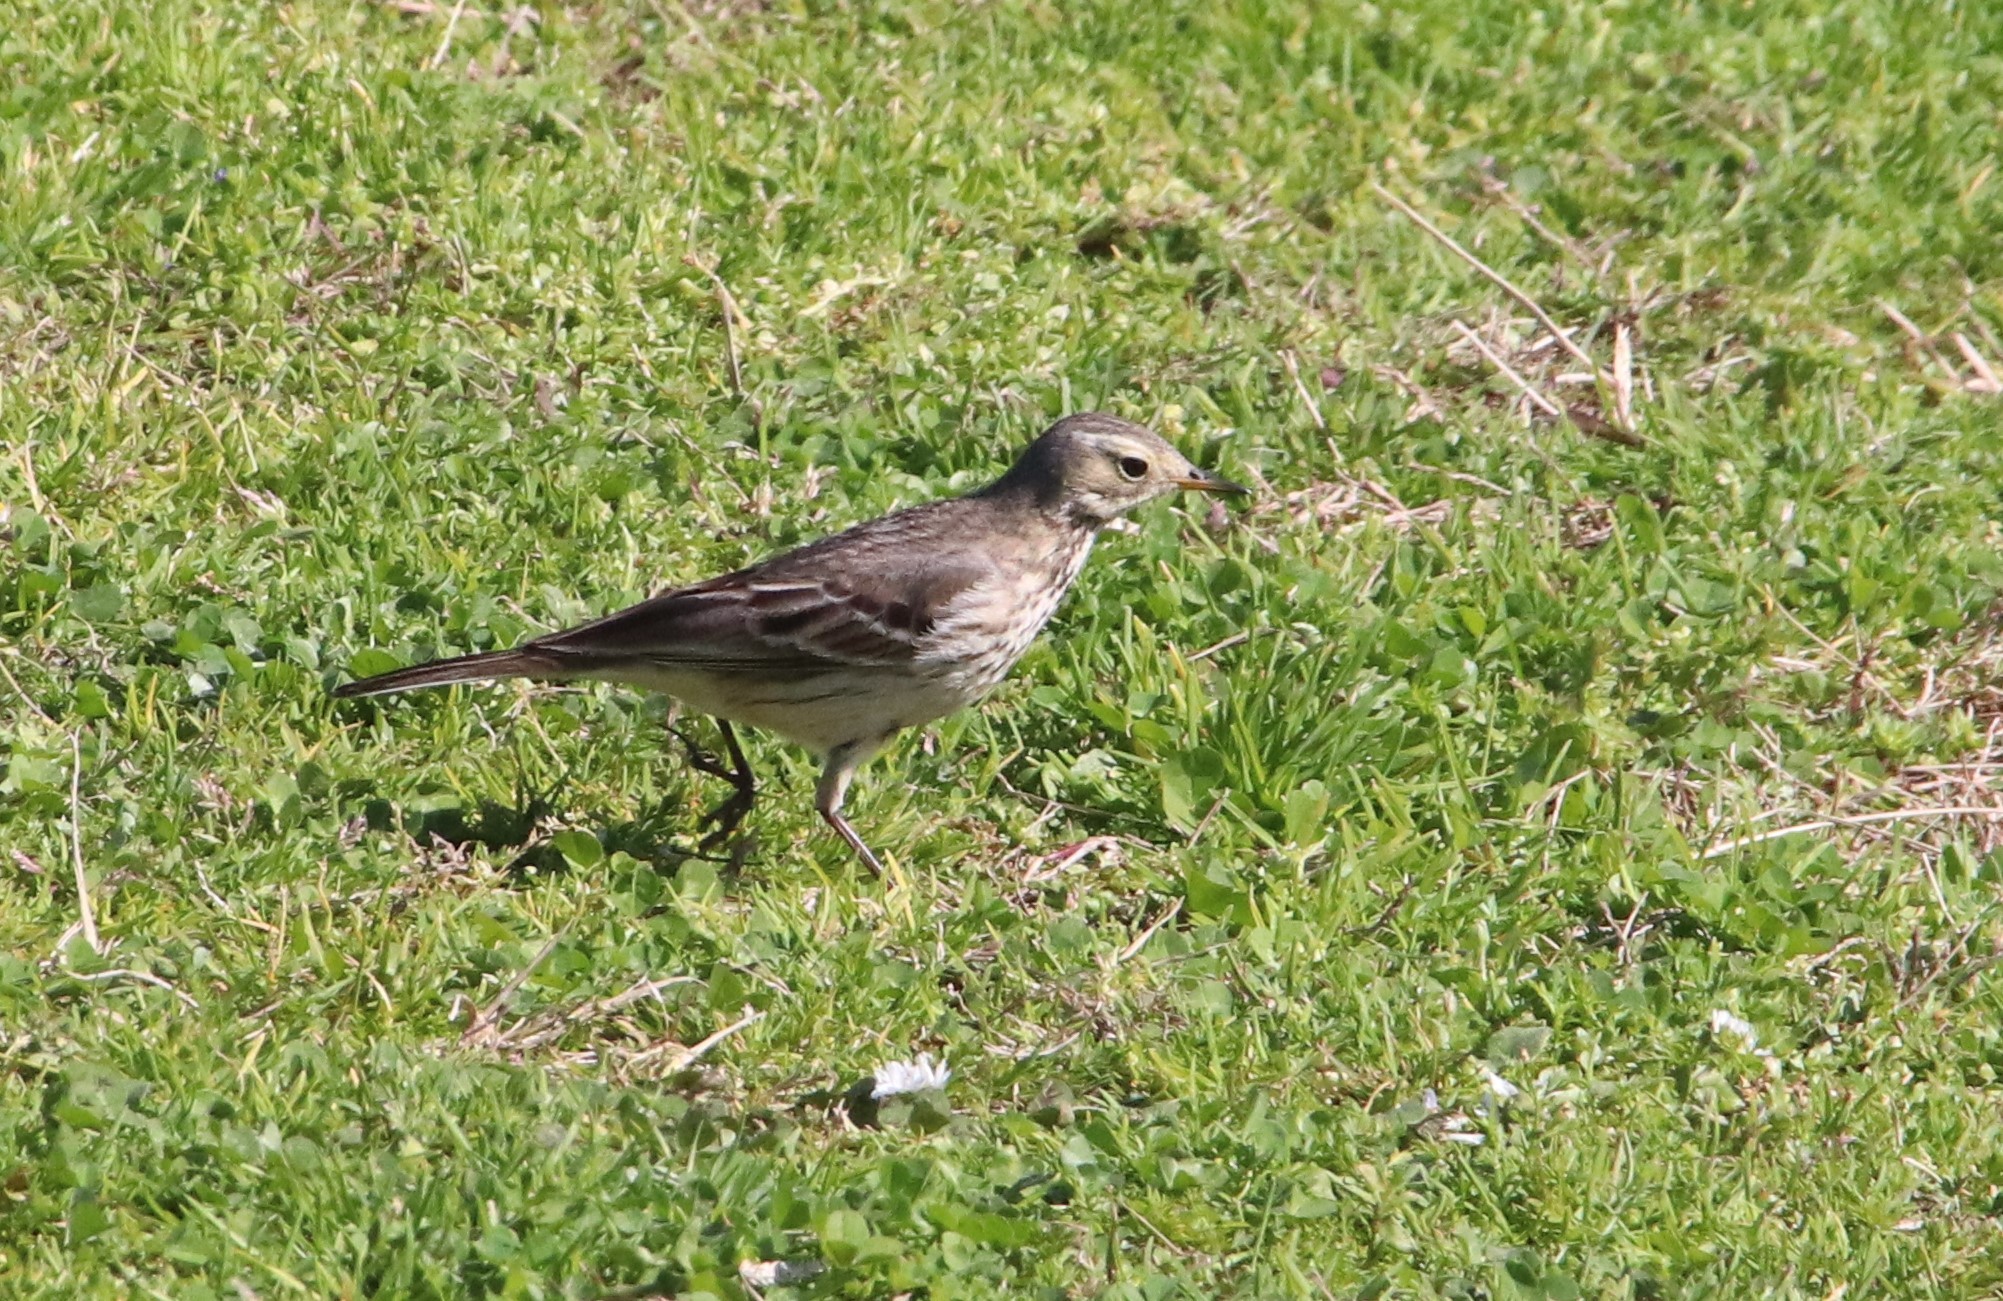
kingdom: Animalia
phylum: Chordata
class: Aves
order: Passeriformes
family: Motacillidae
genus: Anthus
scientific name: Anthus rubescens
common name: Buff-bellied pipit
